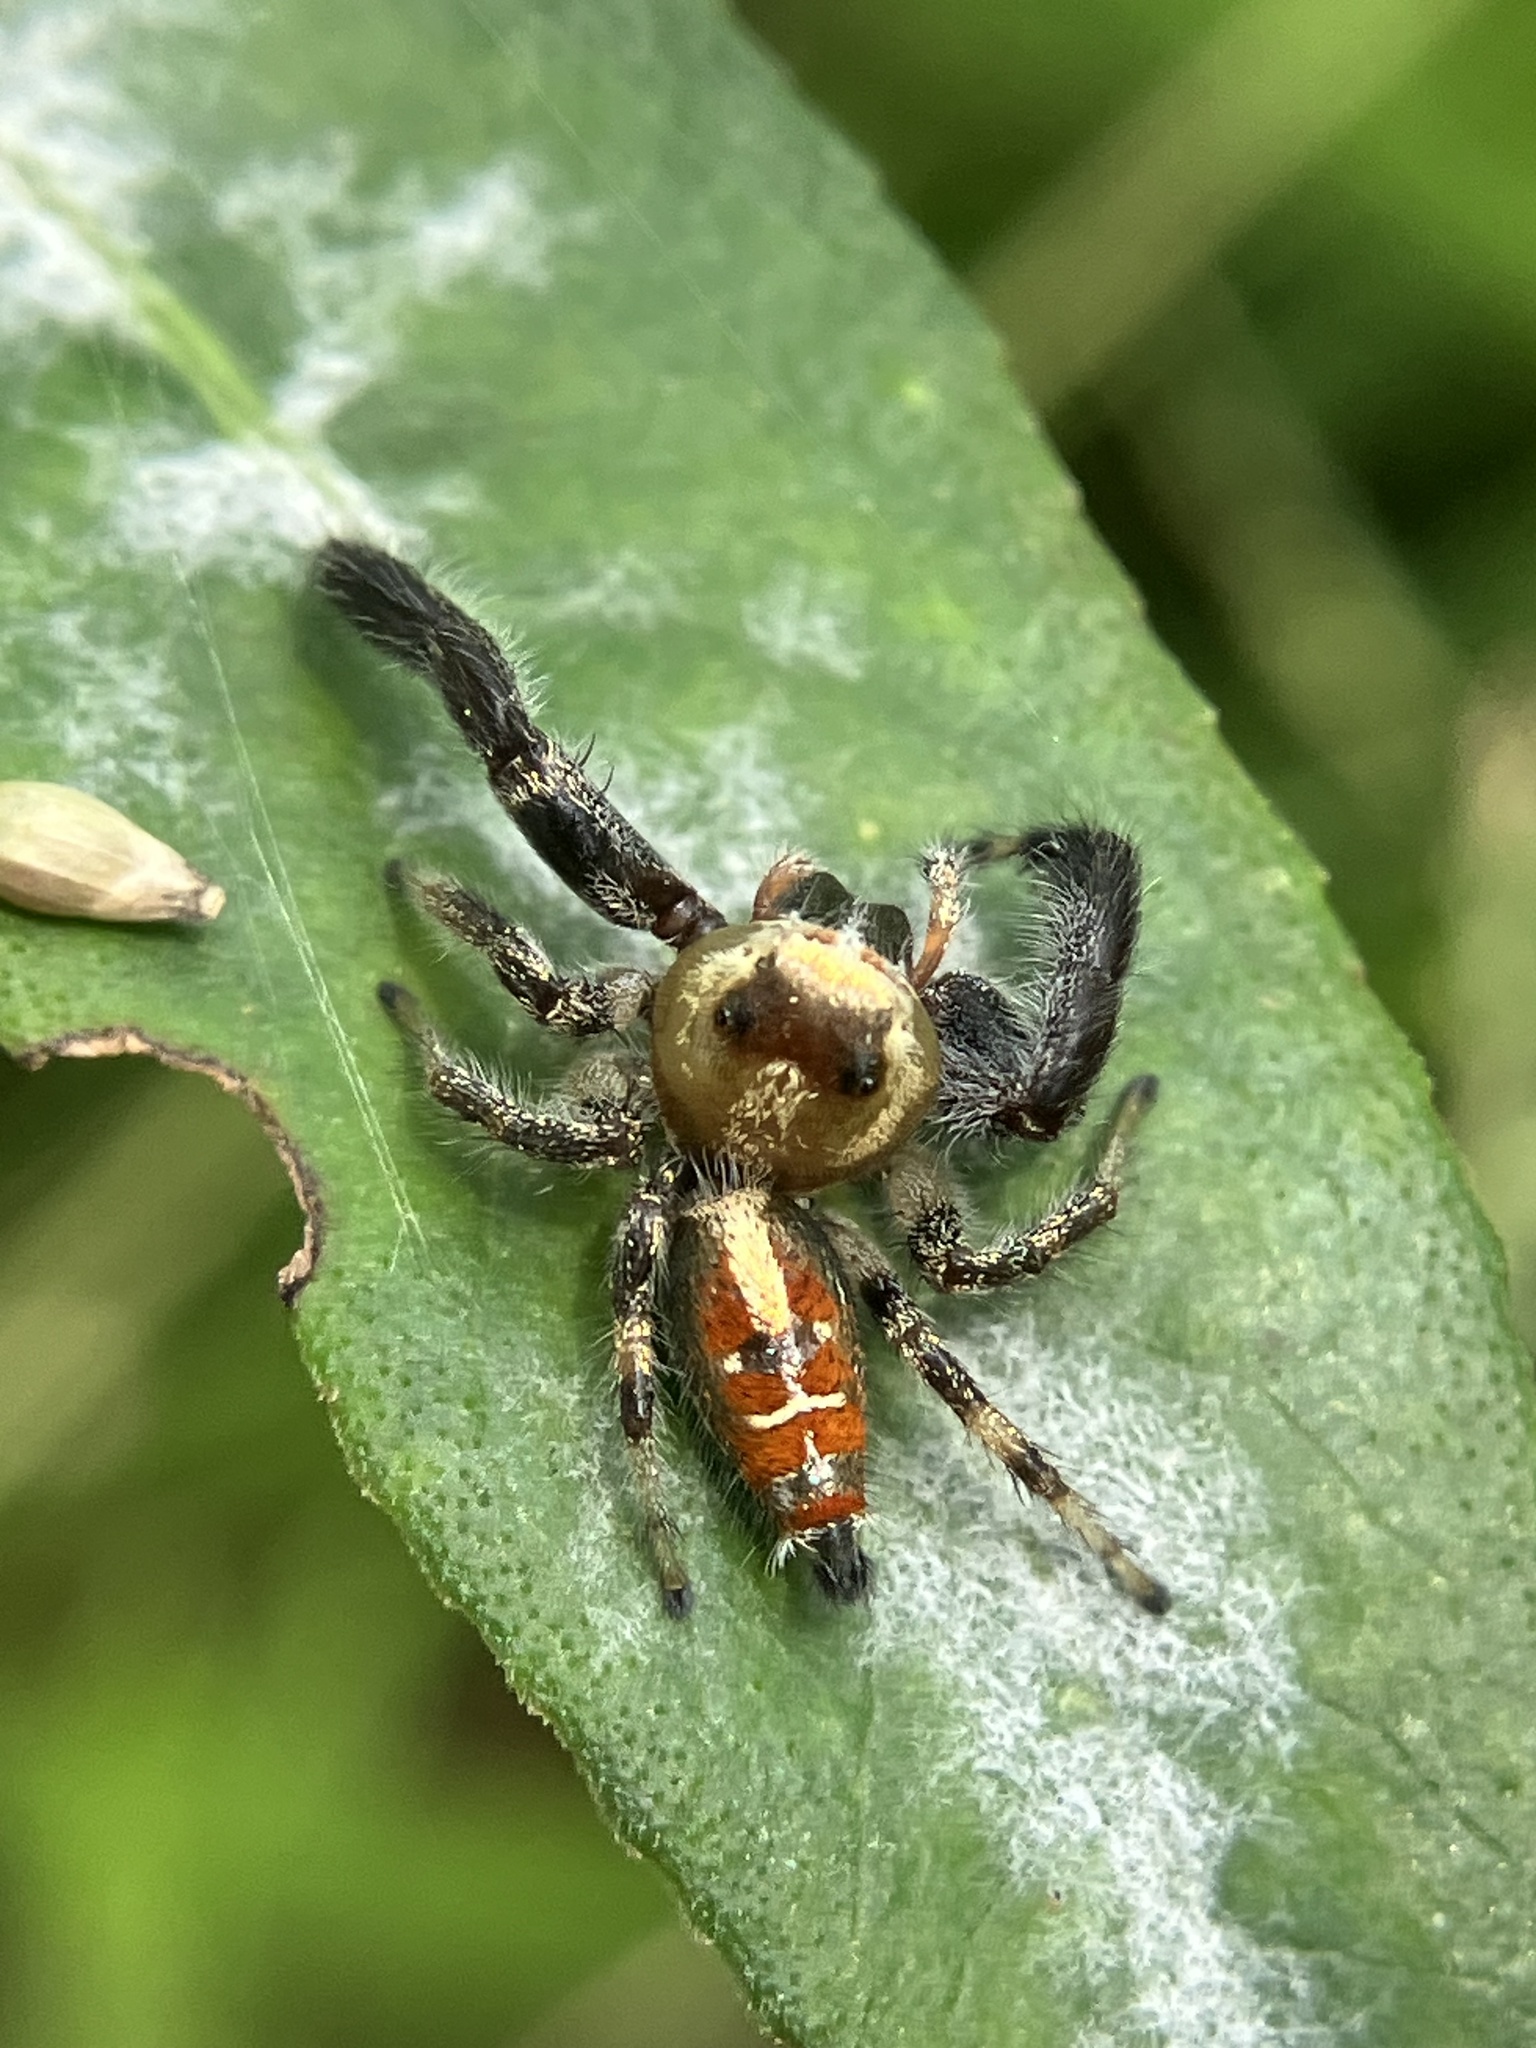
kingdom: Animalia
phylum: Arthropoda
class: Arachnida
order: Araneae
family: Salticidae
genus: Thyene
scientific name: Thyene imperialis
